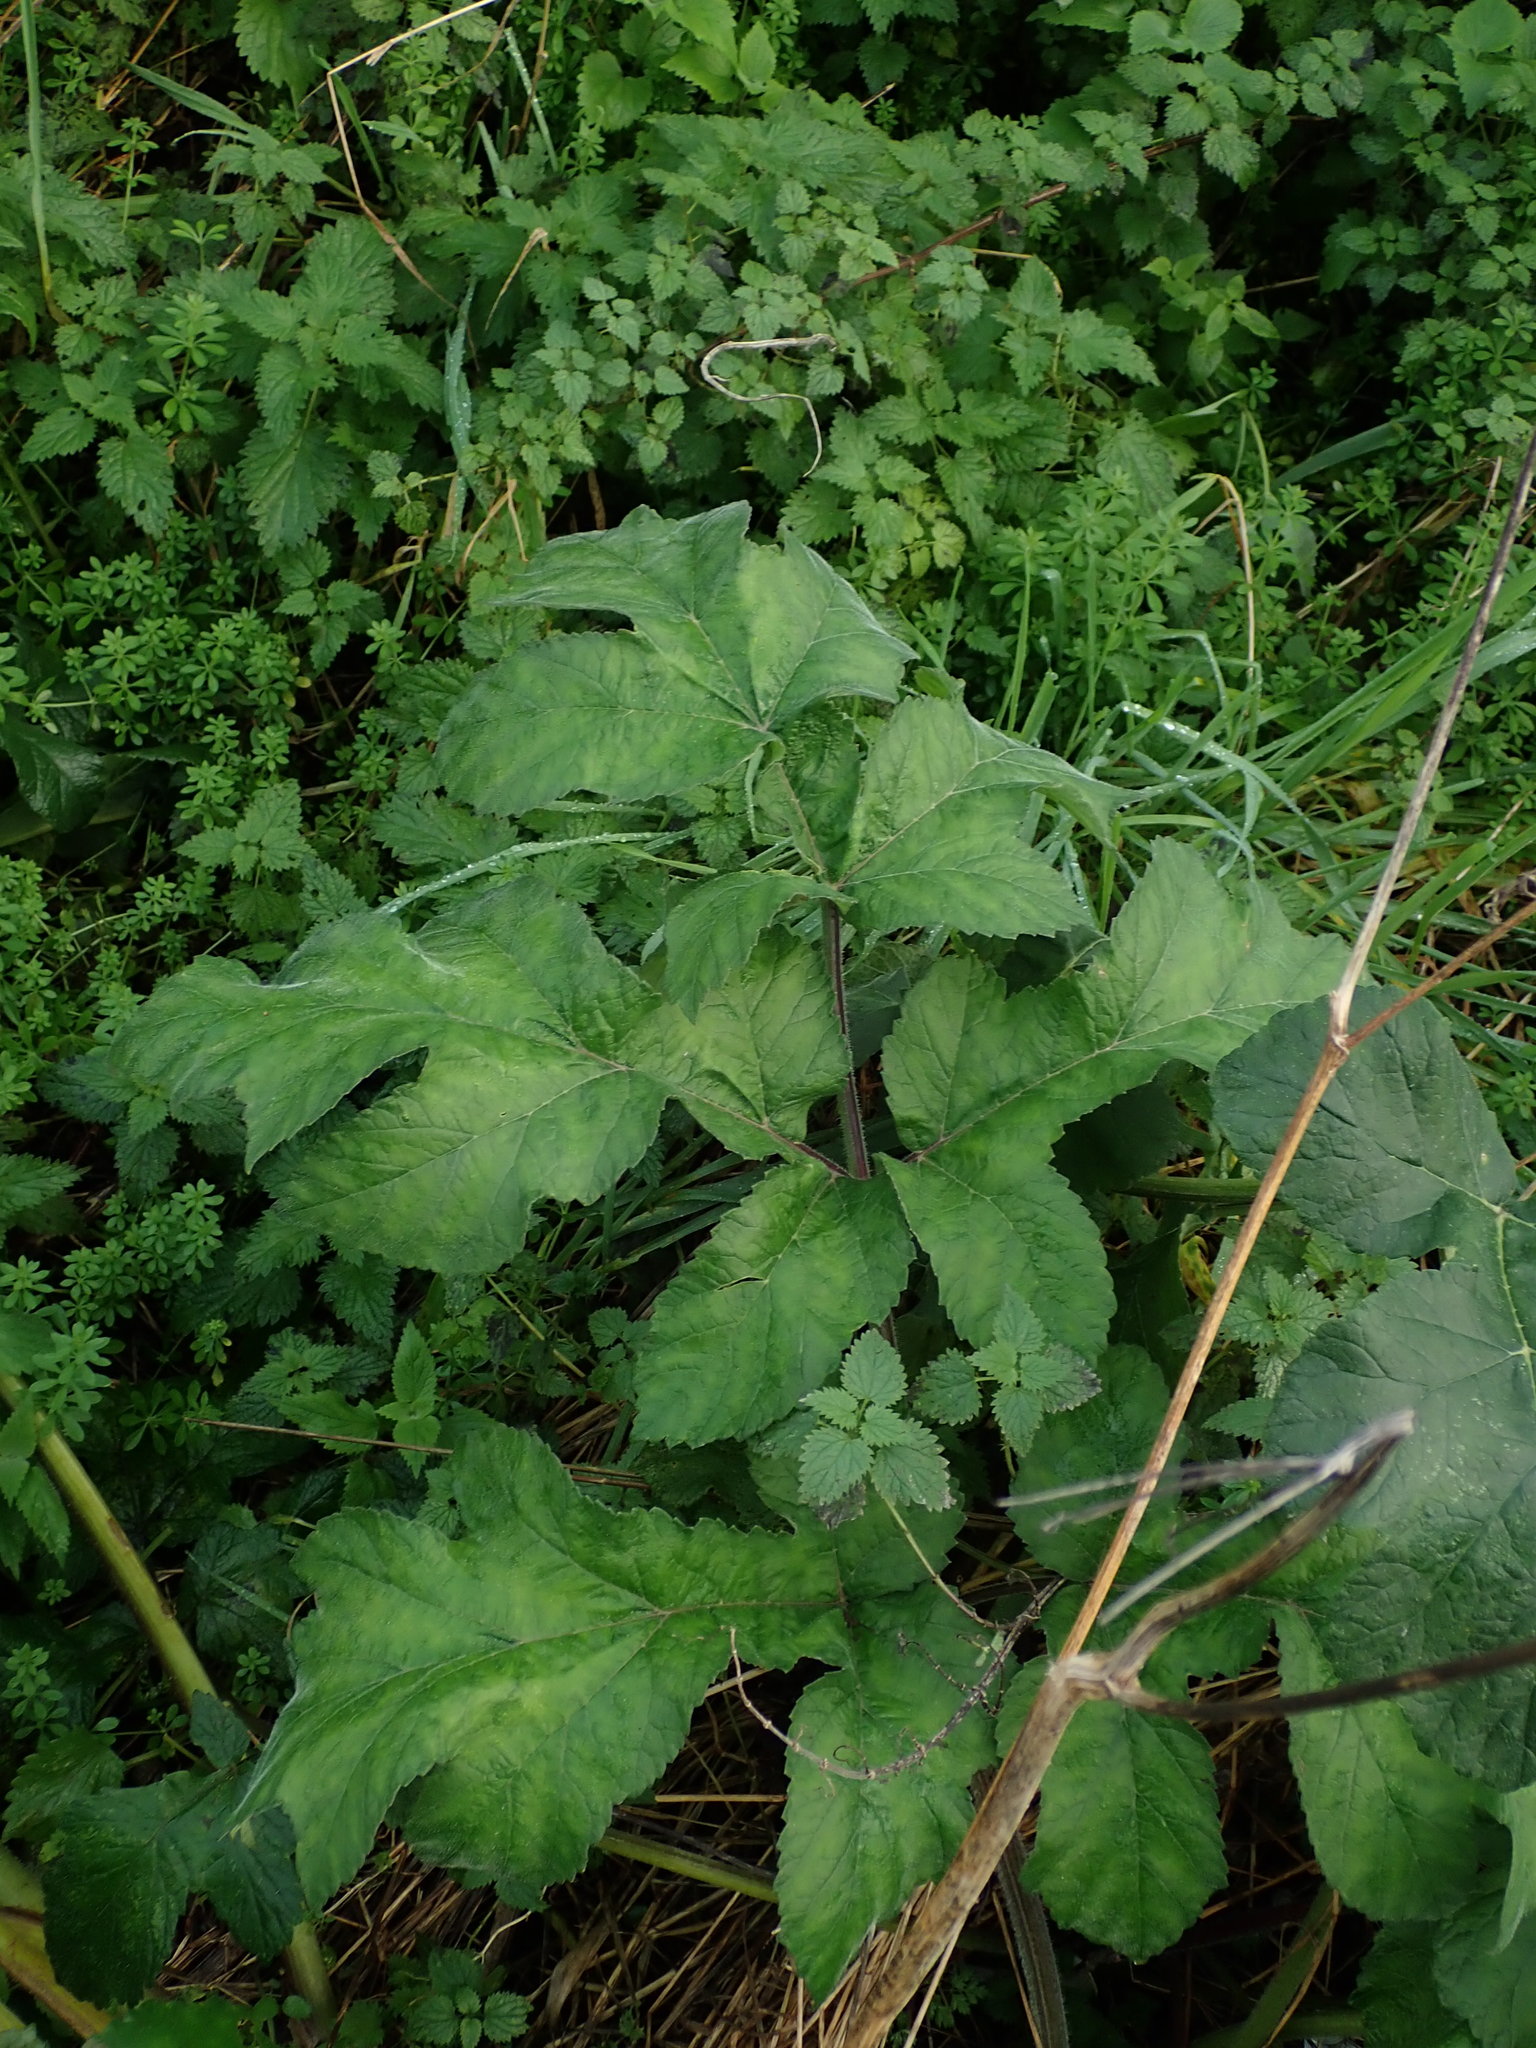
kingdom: Plantae
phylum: Tracheophyta
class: Magnoliopsida
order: Apiales
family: Apiaceae
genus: Heracleum
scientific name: Heracleum sphondylium
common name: Hogweed
